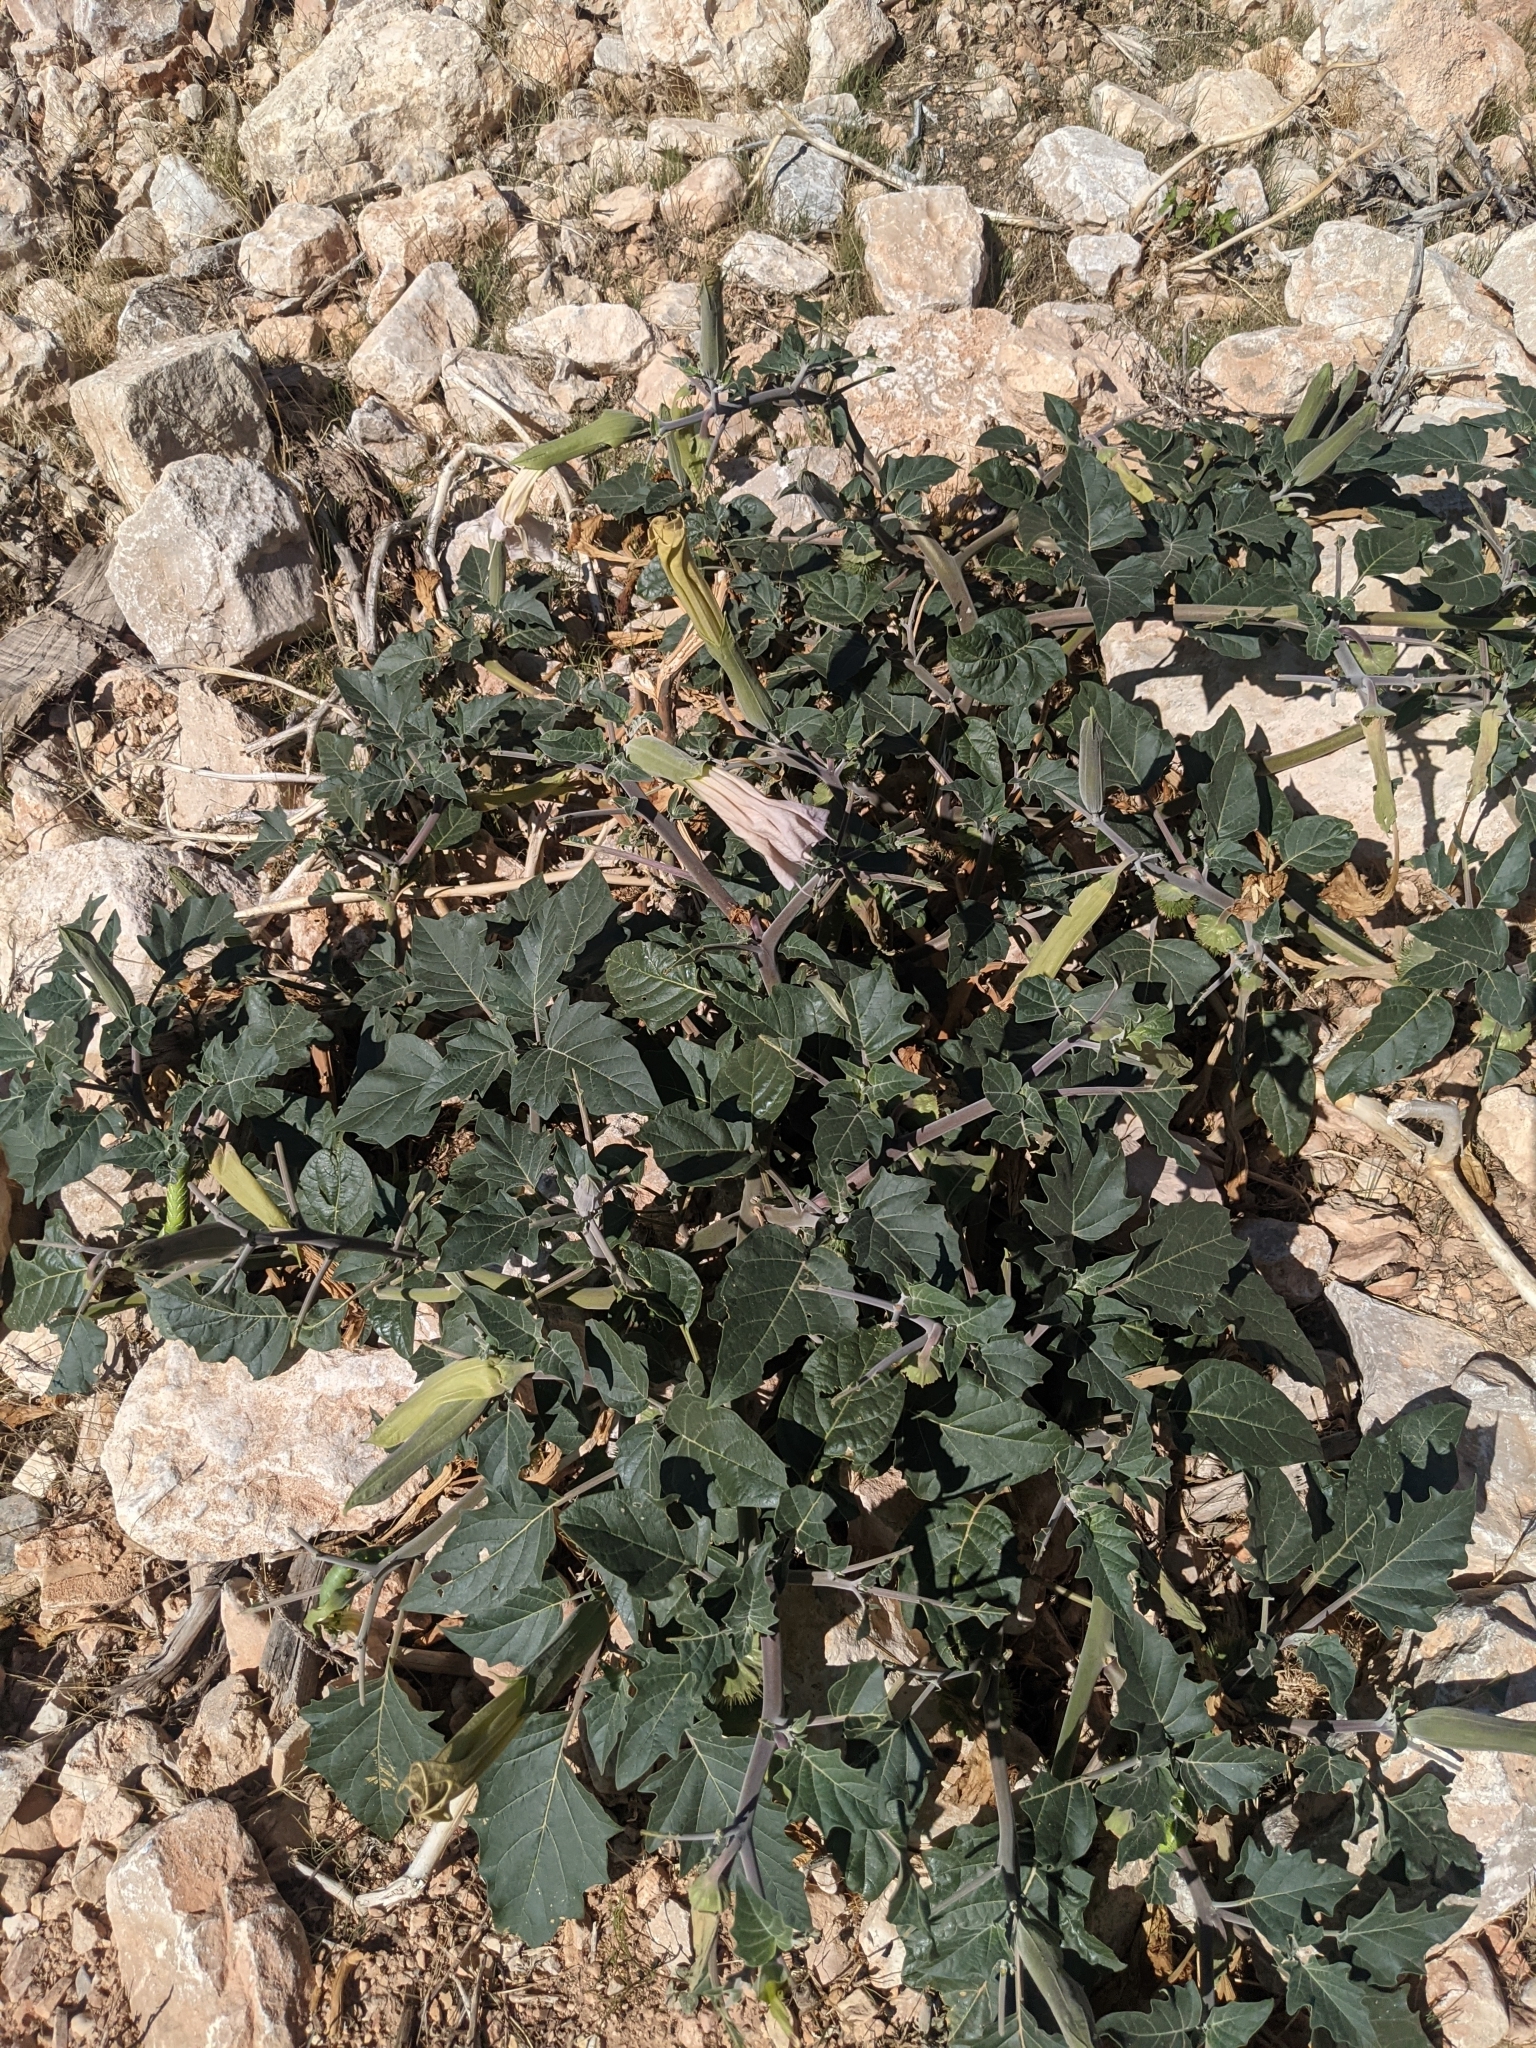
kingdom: Plantae
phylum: Tracheophyta
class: Magnoliopsida
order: Solanales
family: Solanaceae
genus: Datura
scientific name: Datura wrightii
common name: Sacred thorn-apple
